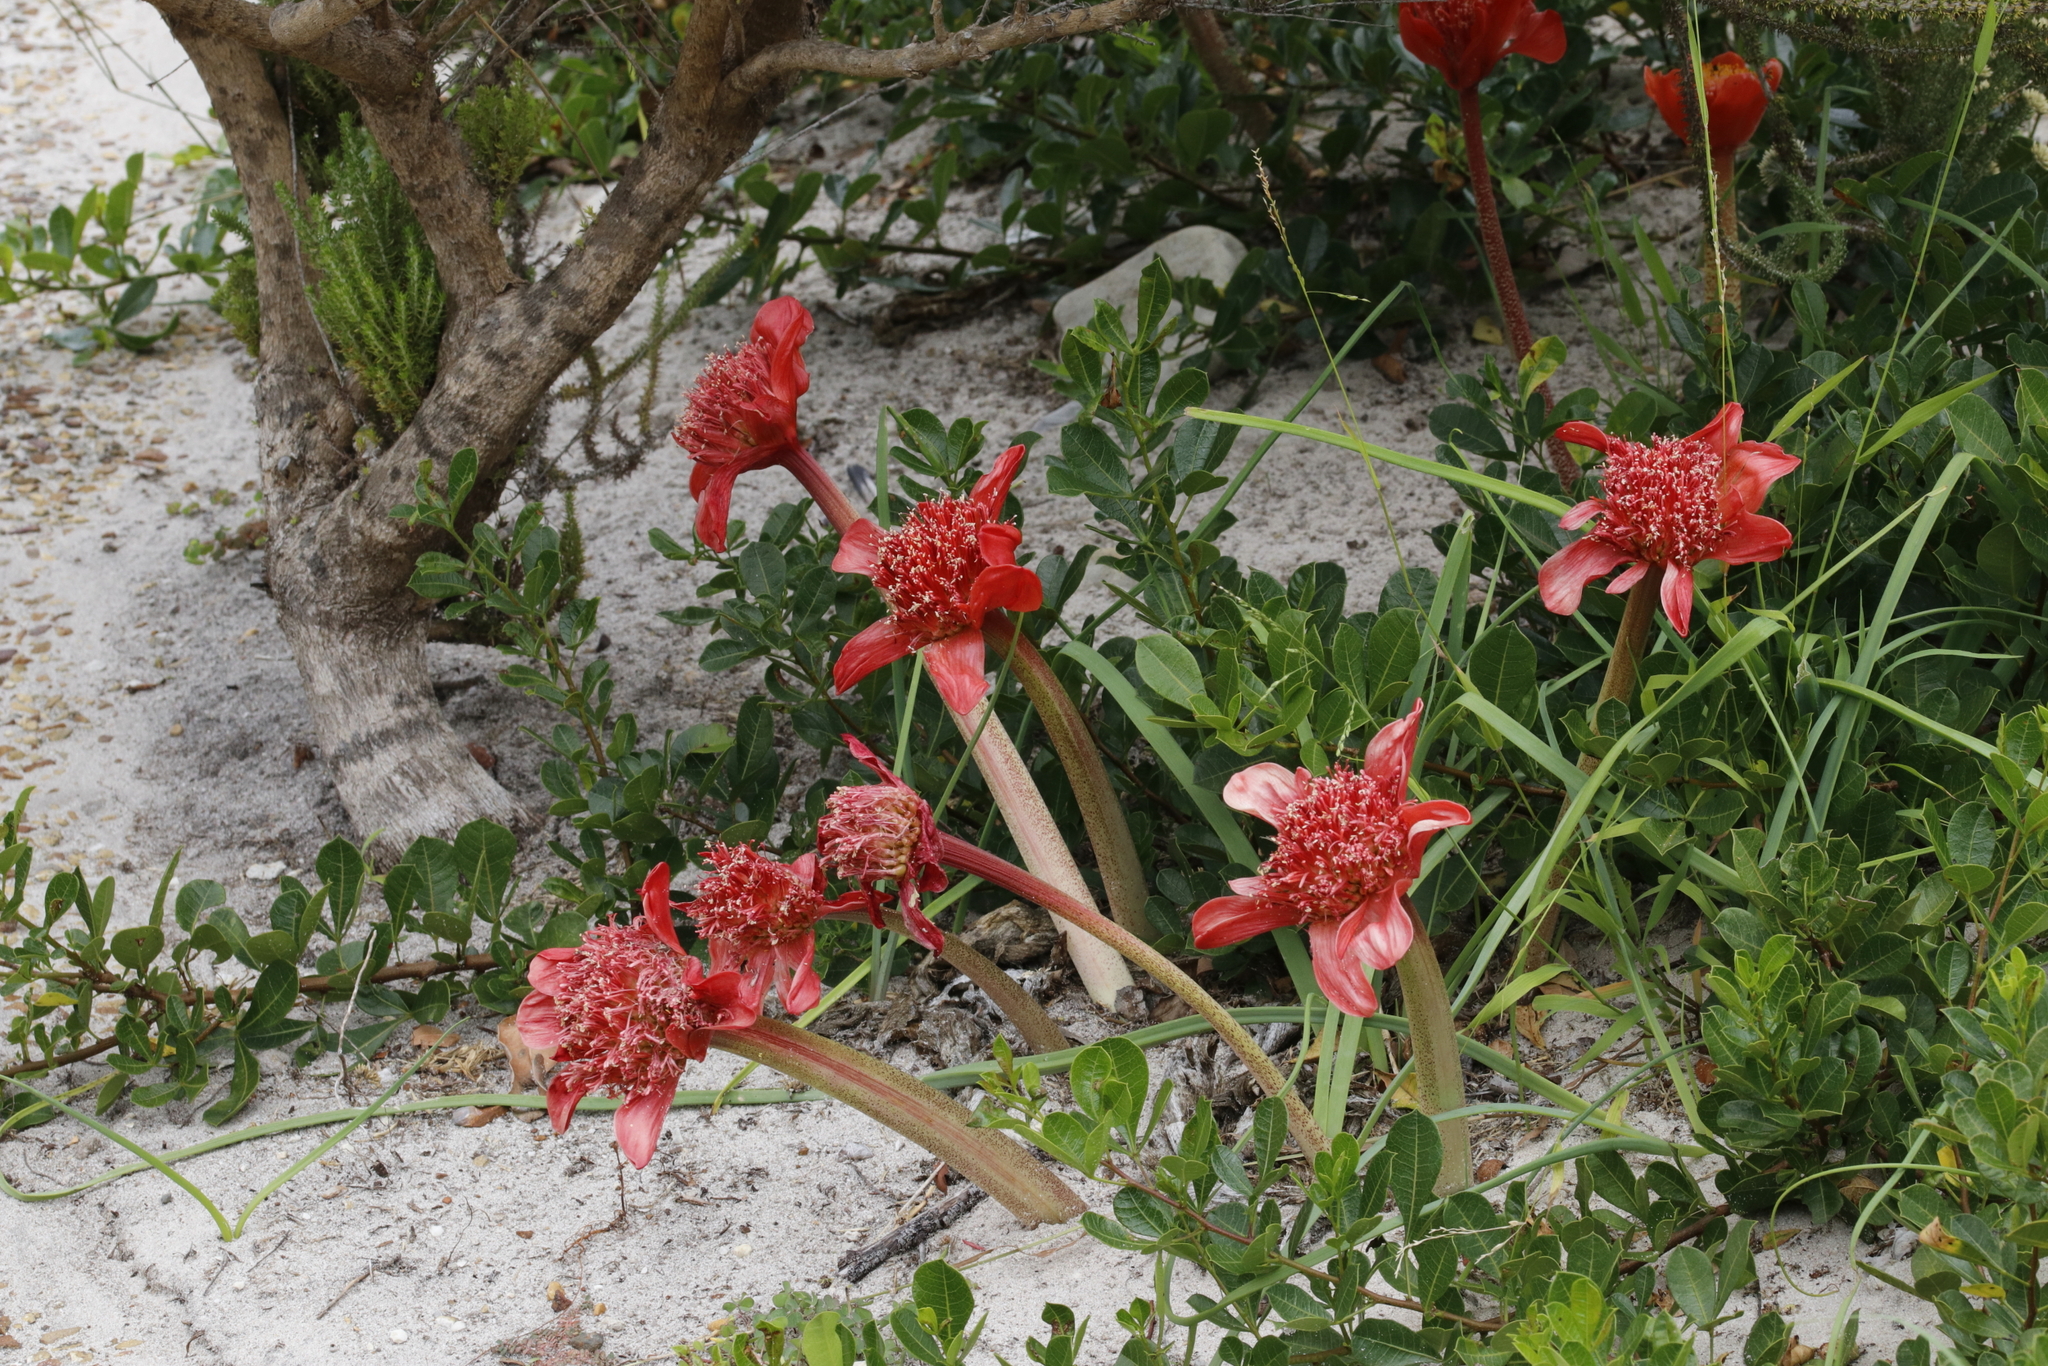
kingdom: Plantae
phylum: Tracheophyta
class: Liliopsida
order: Asparagales
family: Amaryllidaceae
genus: Haemanthus
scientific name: Haemanthus coccineus
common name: Cape-tulip
